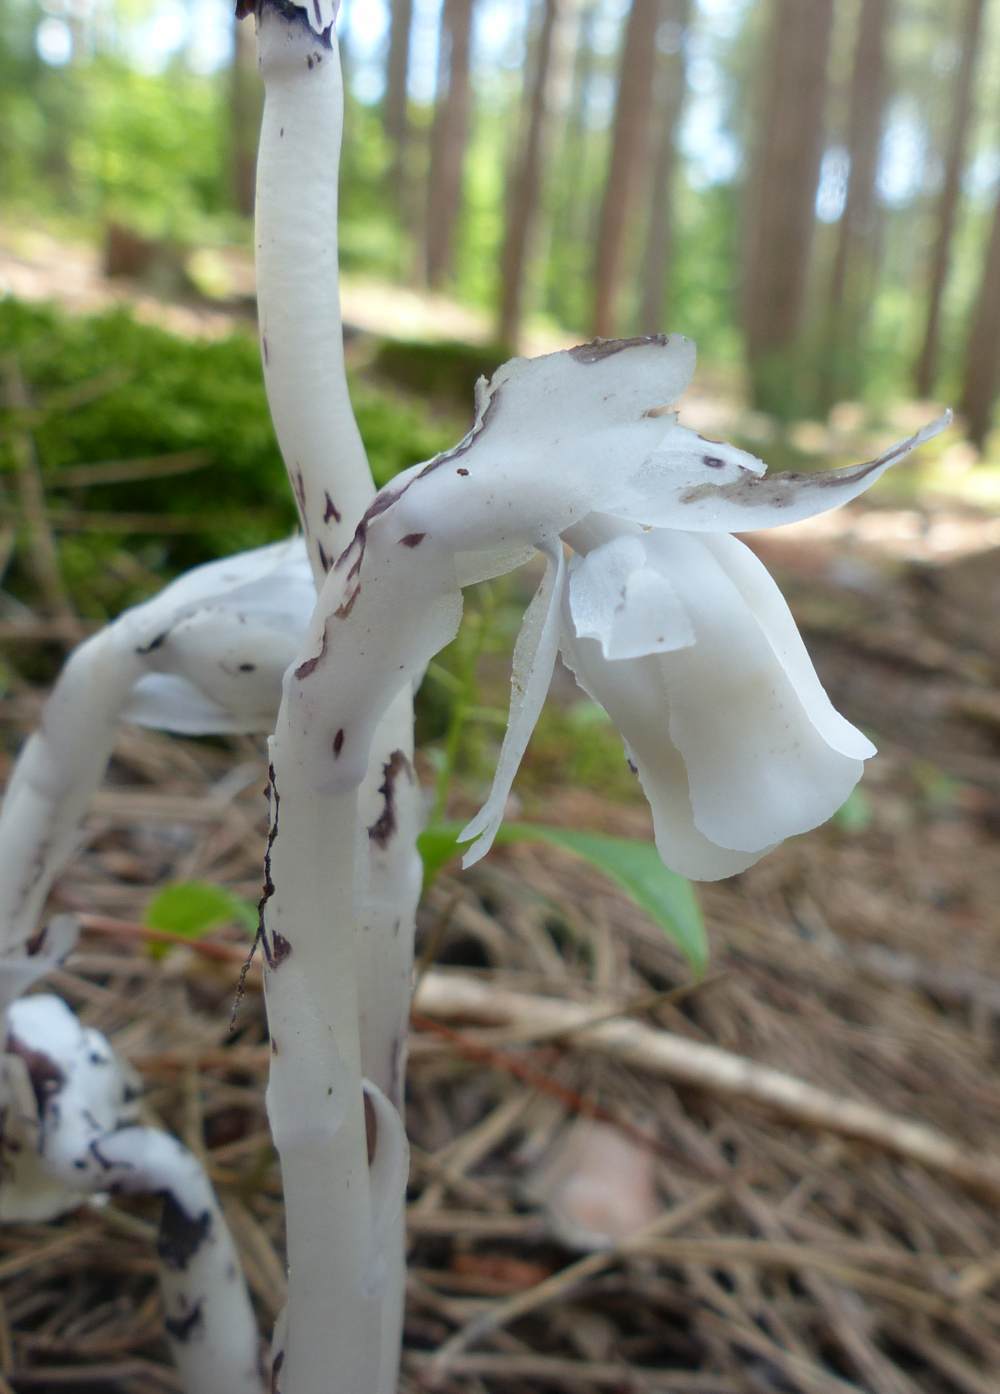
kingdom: Plantae
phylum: Tracheophyta
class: Magnoliopsida
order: Ericales
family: Ericaceae
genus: Monotropa
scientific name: Monotropa uniflora
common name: Convulsion root
